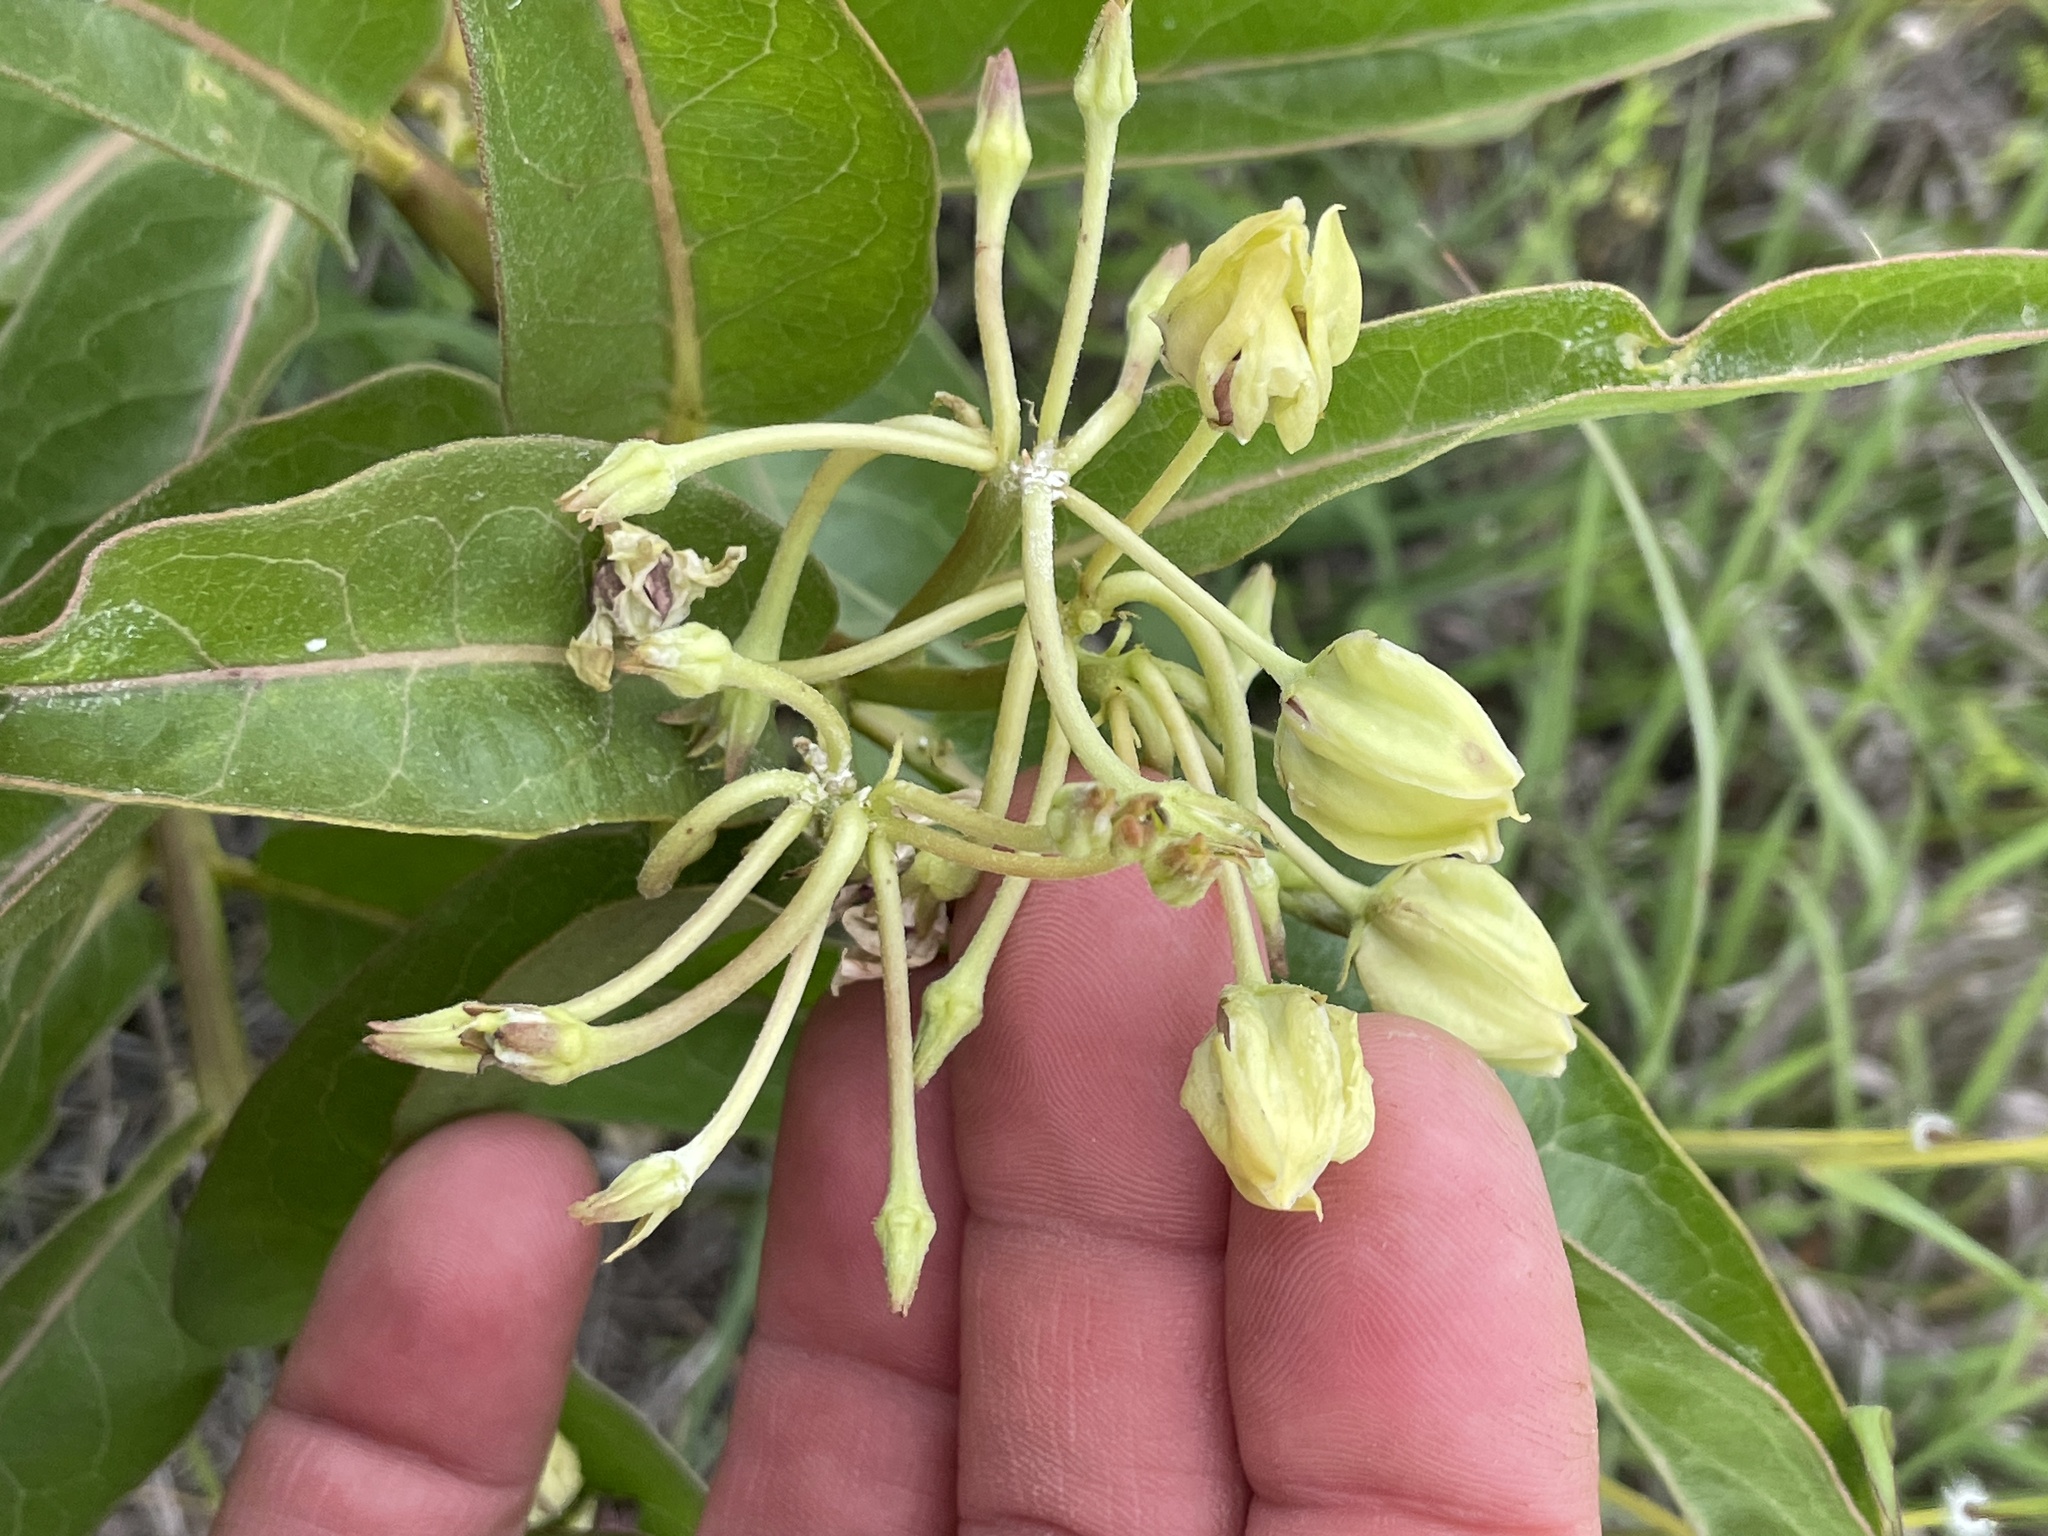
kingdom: Plantae
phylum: Tracheophyta
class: Magnoliopsida
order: Gentianales
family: Apocynaceae
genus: Asclepias
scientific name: Asclepias viridis
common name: Antelope-horns
